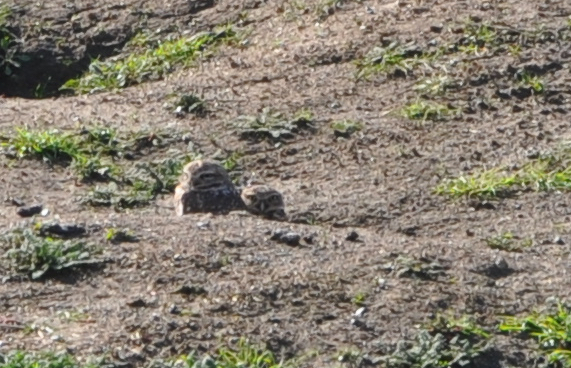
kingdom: Animalia
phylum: Chordata
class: Aves
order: Strigiformes
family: Strigidae
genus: Athene
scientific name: Athene cunicularia
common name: Burrowing owl
